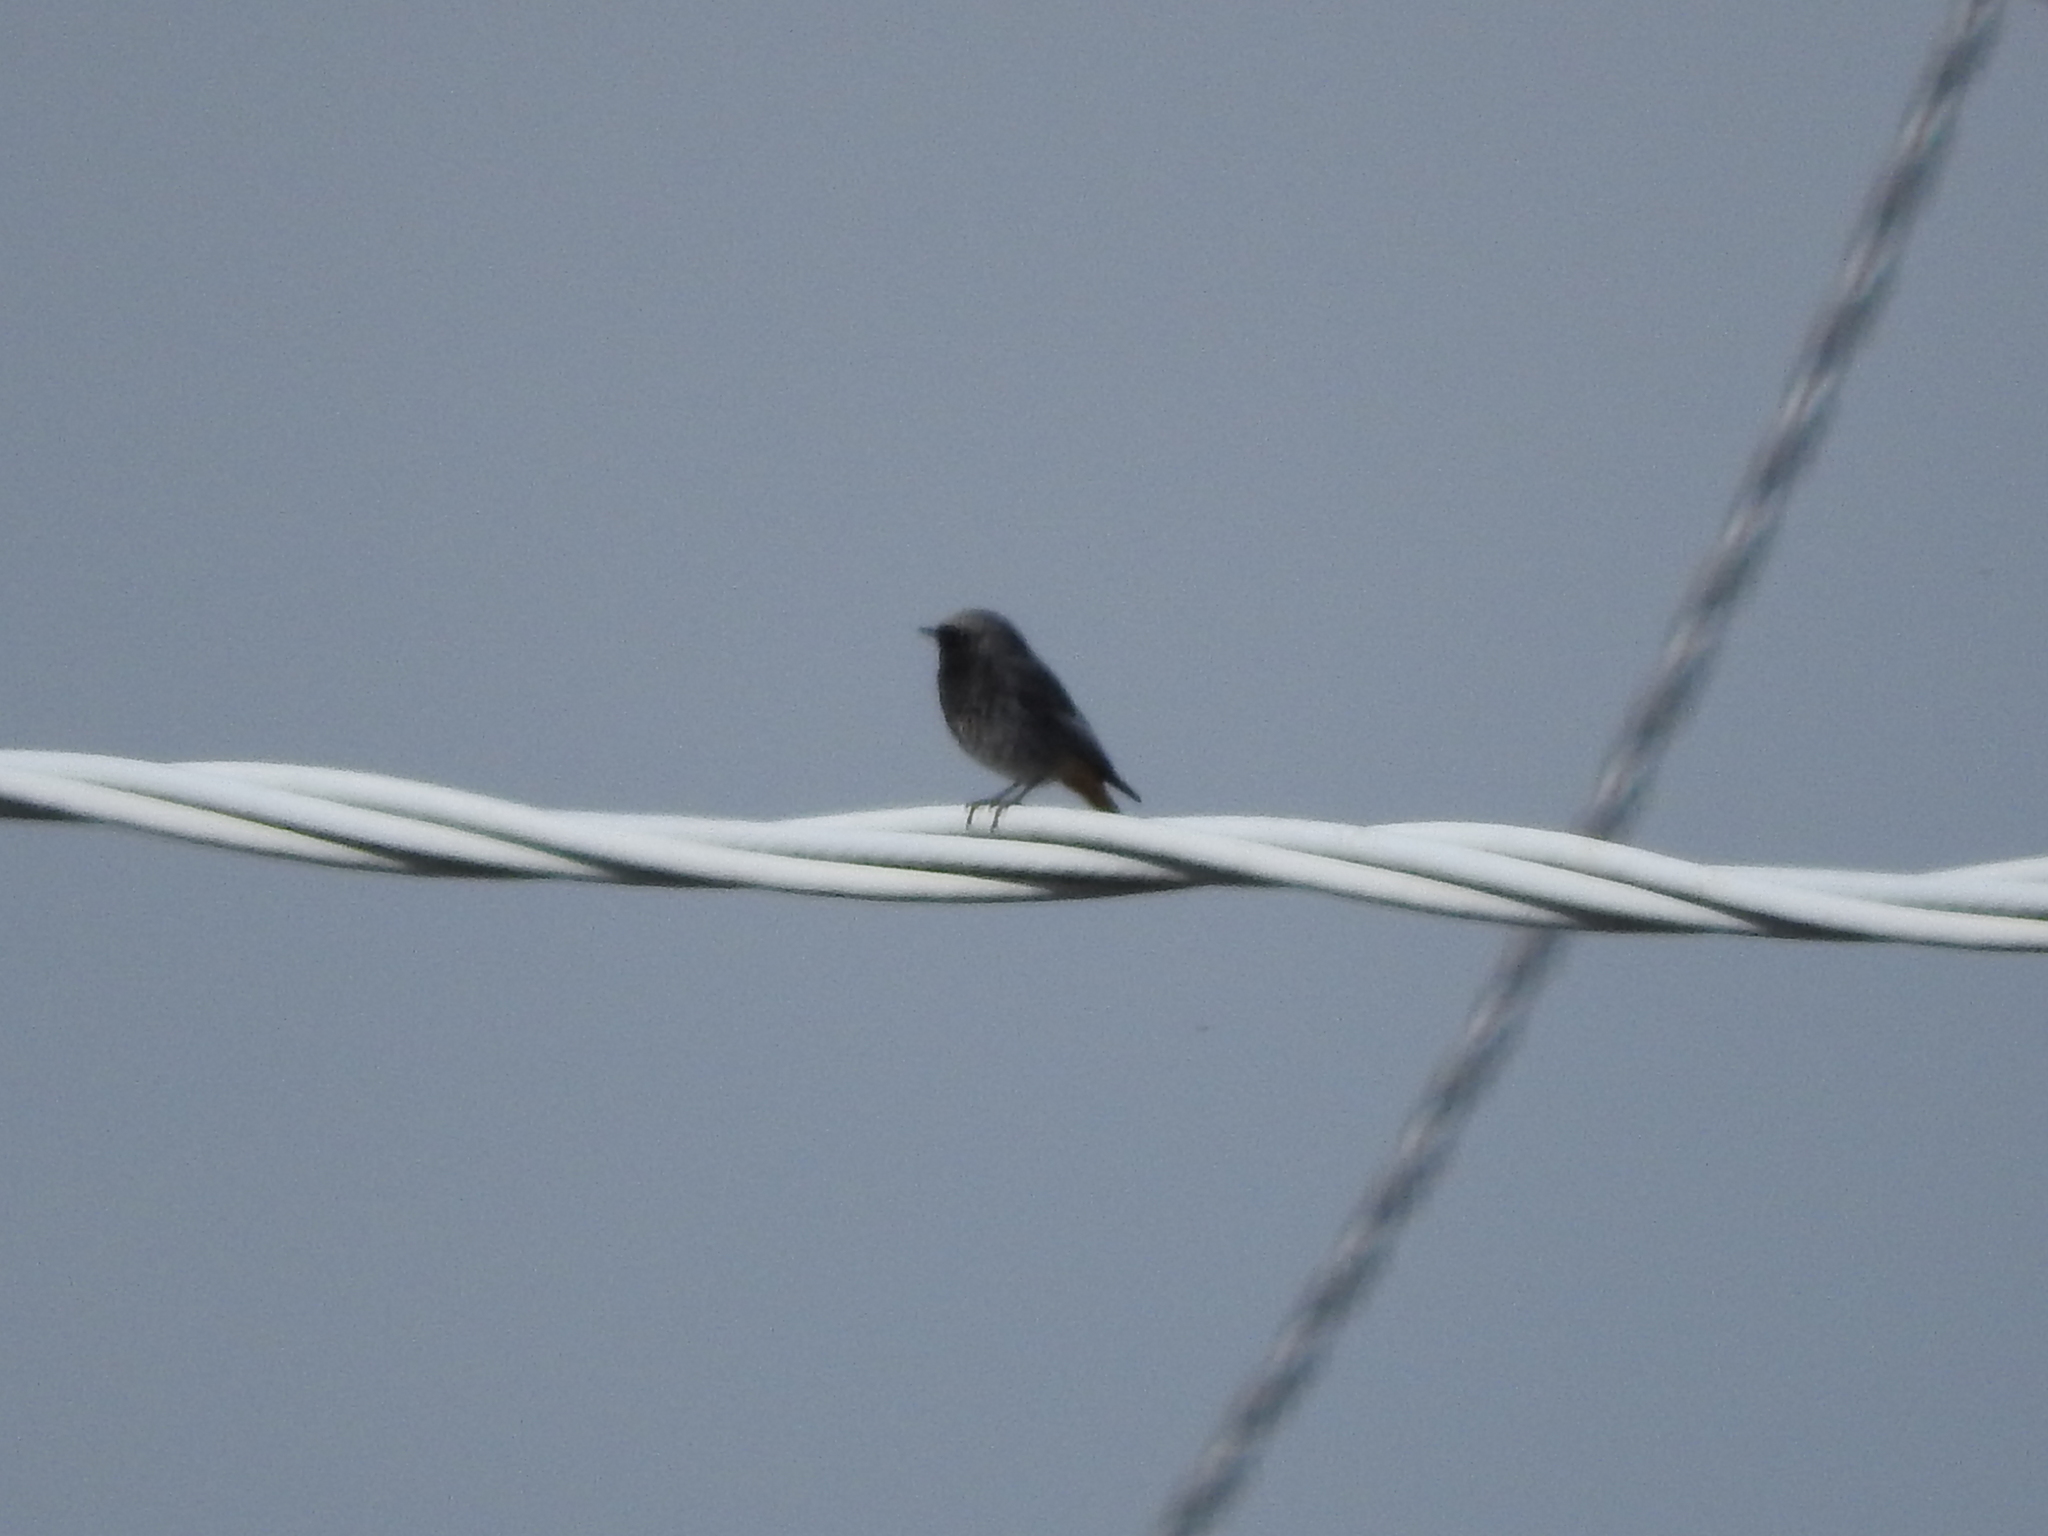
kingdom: Animalia
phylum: Chordata
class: Aves
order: Passeriformes
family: Muscicapidae
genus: Phoenicurus
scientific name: Phoenicurus ochruros
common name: Black redstart
